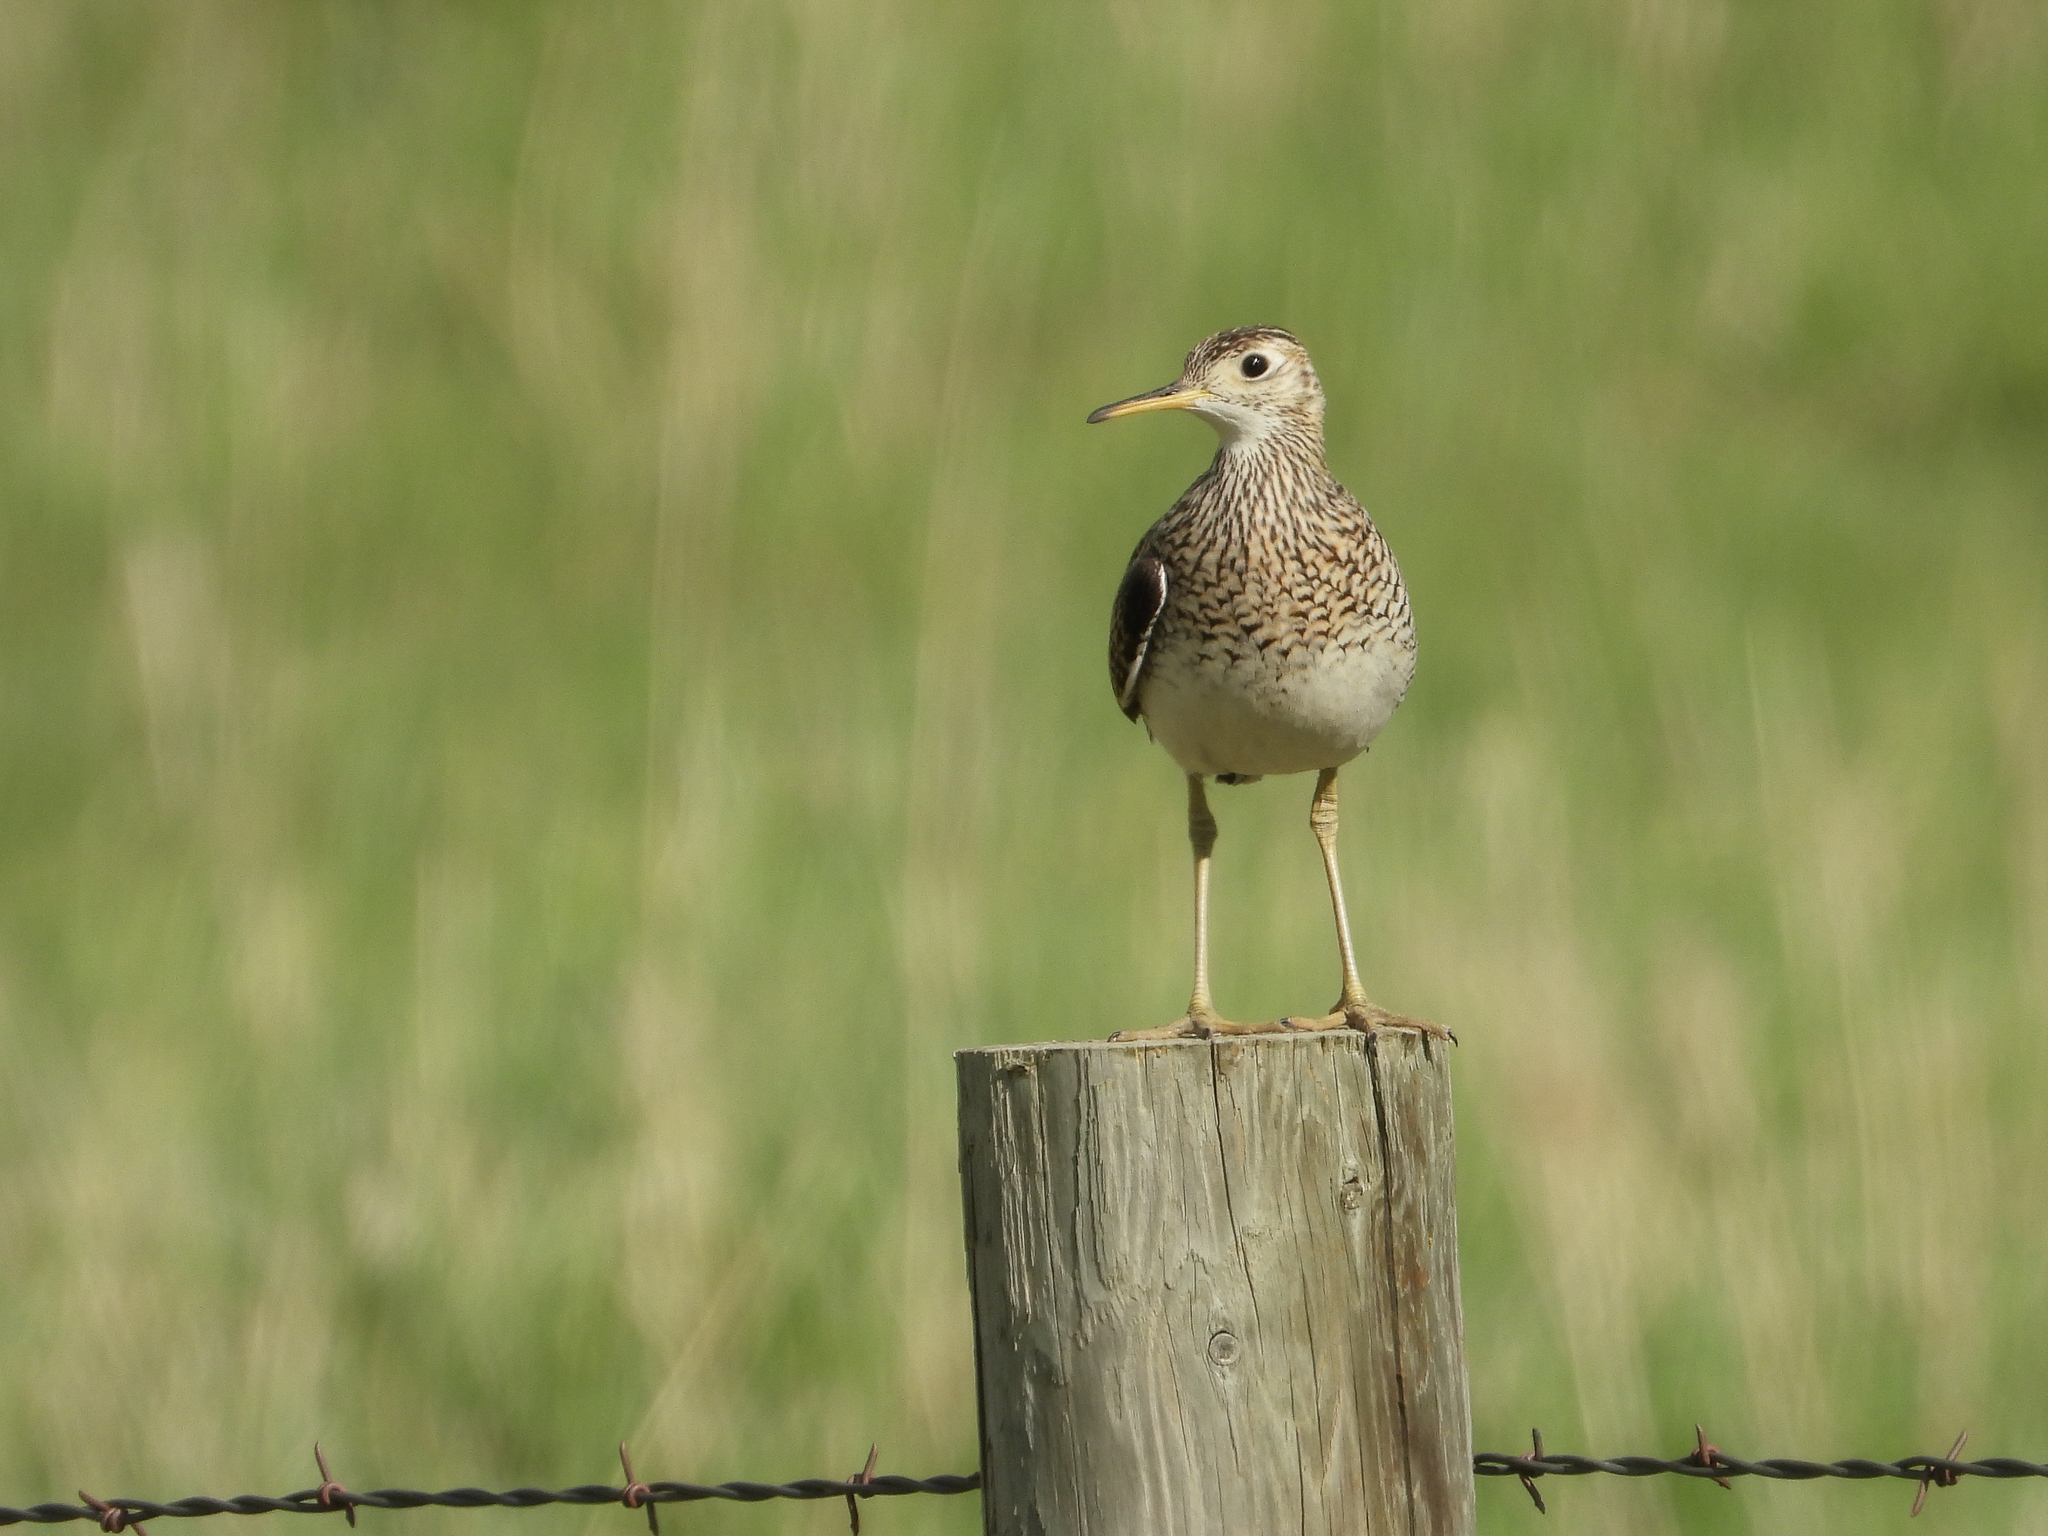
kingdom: Animalia
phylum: Chordata
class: Aves
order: Charadriiformes
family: Scolopacidae
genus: Bartramia
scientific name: Bartramia longicauda
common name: Upland sandpiper
